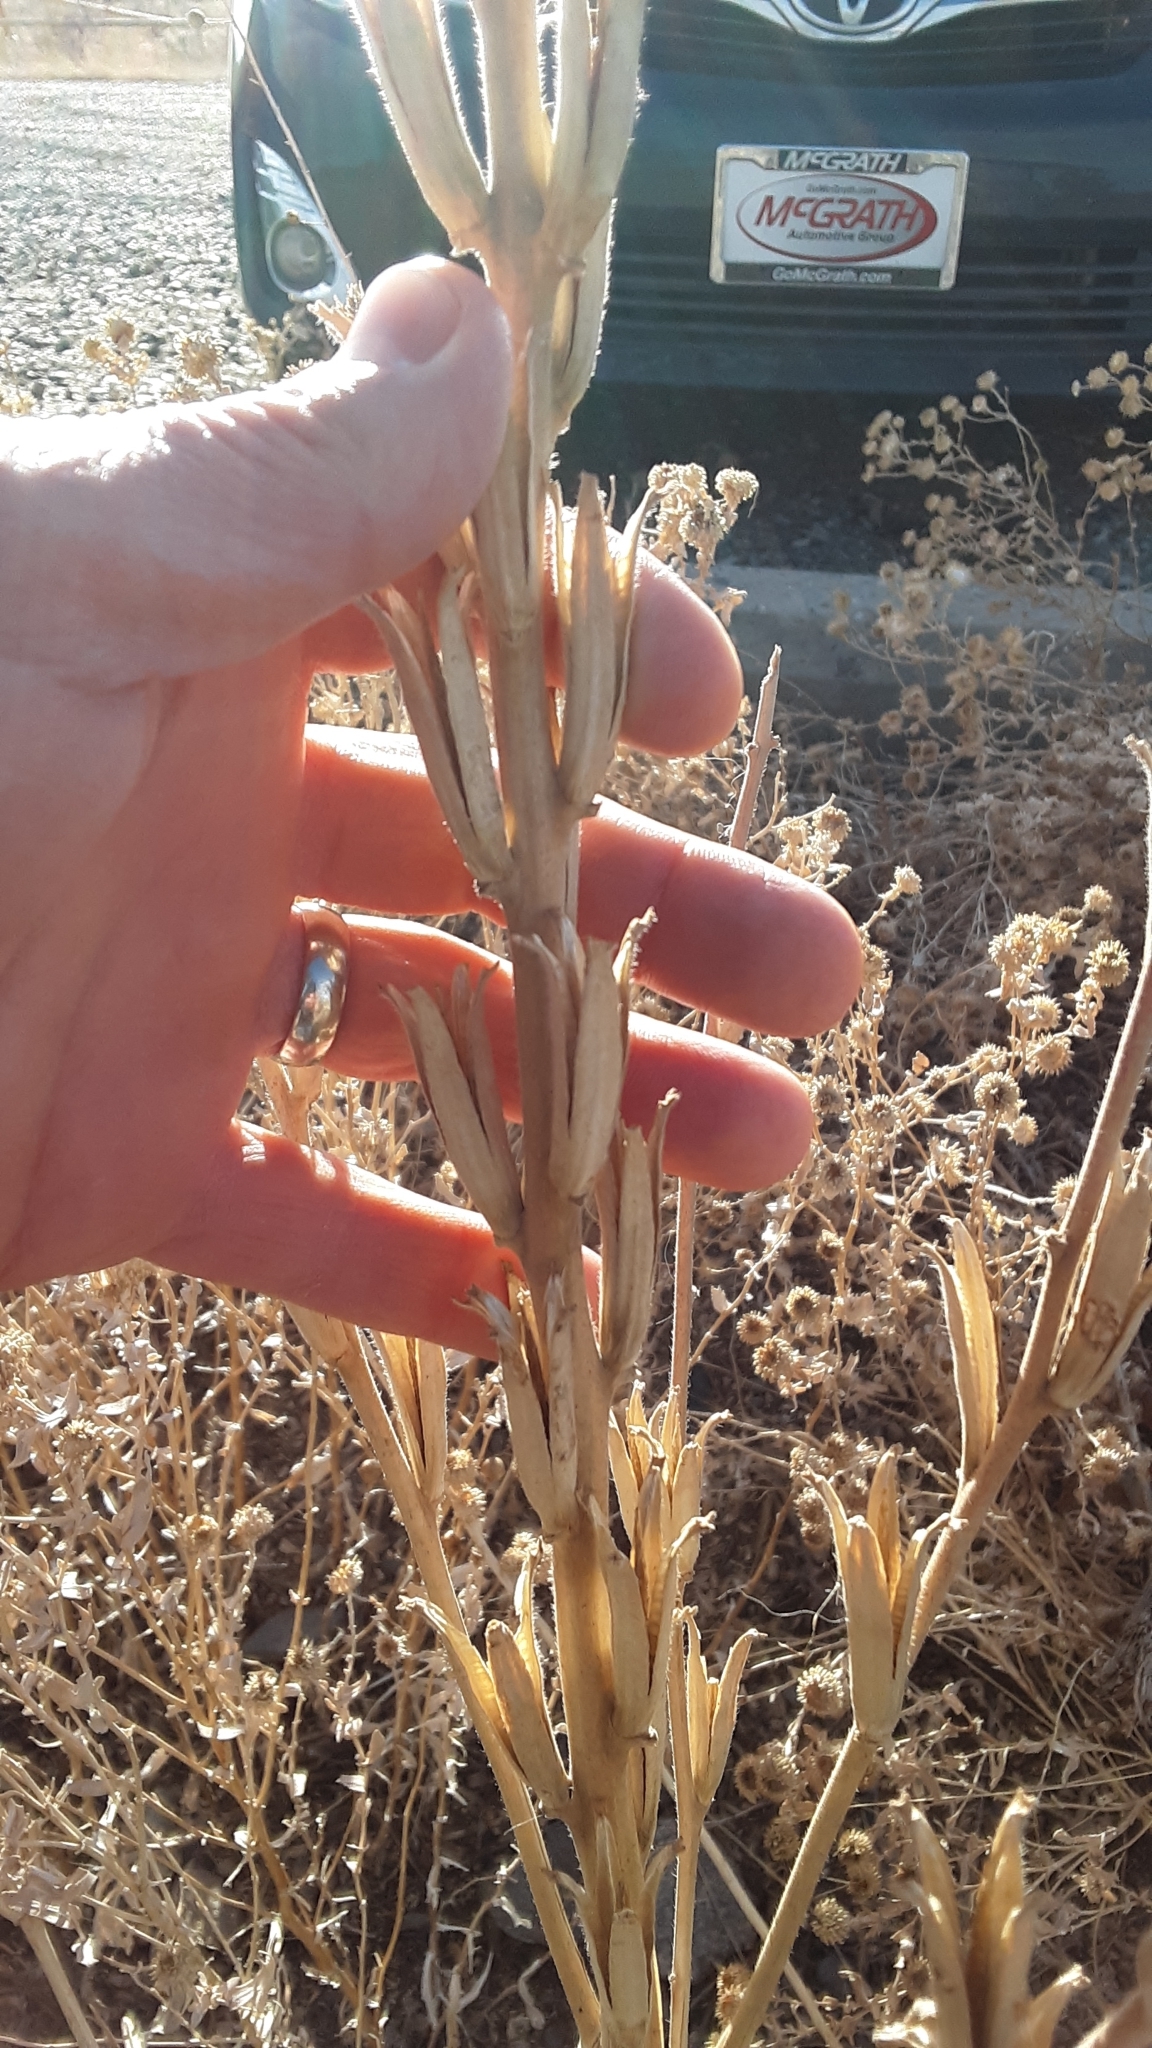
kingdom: Plantae
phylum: Tracheophyta
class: Magnoliopsida
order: Myrtales
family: Onagraceae
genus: Oenothera
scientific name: Oenothera villosa
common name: Hairy evening-primrose
